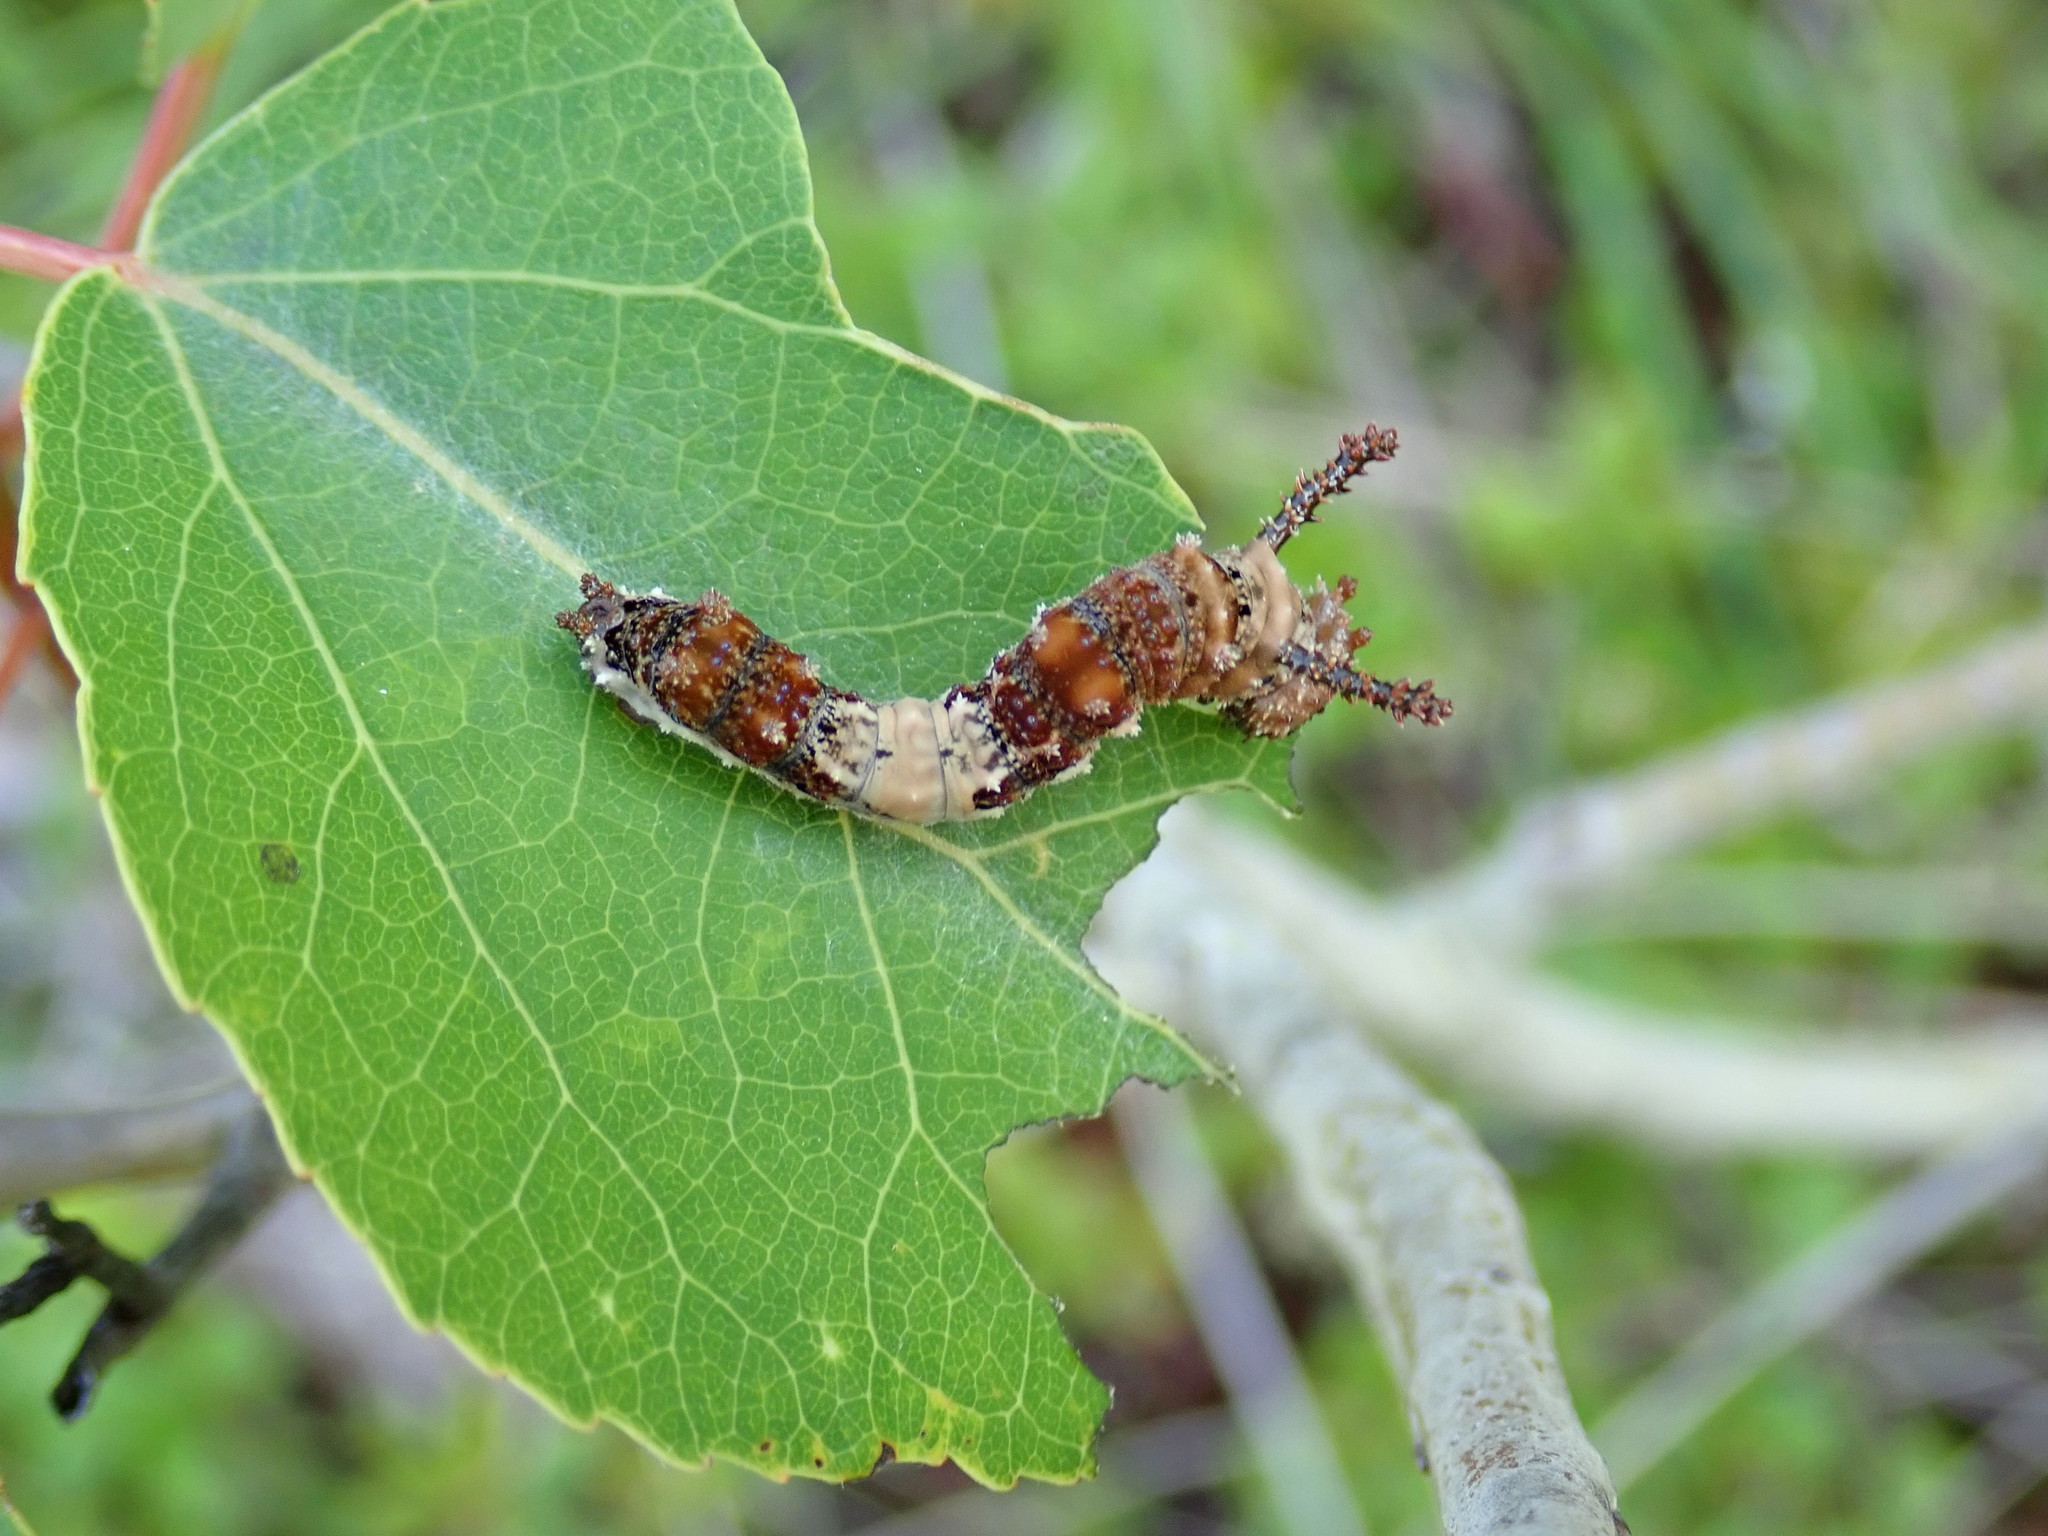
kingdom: Animalia
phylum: Arthropoda
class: Insecta
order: Lepidoptera
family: Nymphalidae
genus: Limenitis
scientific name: Limenitis archippus
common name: Viceroy
